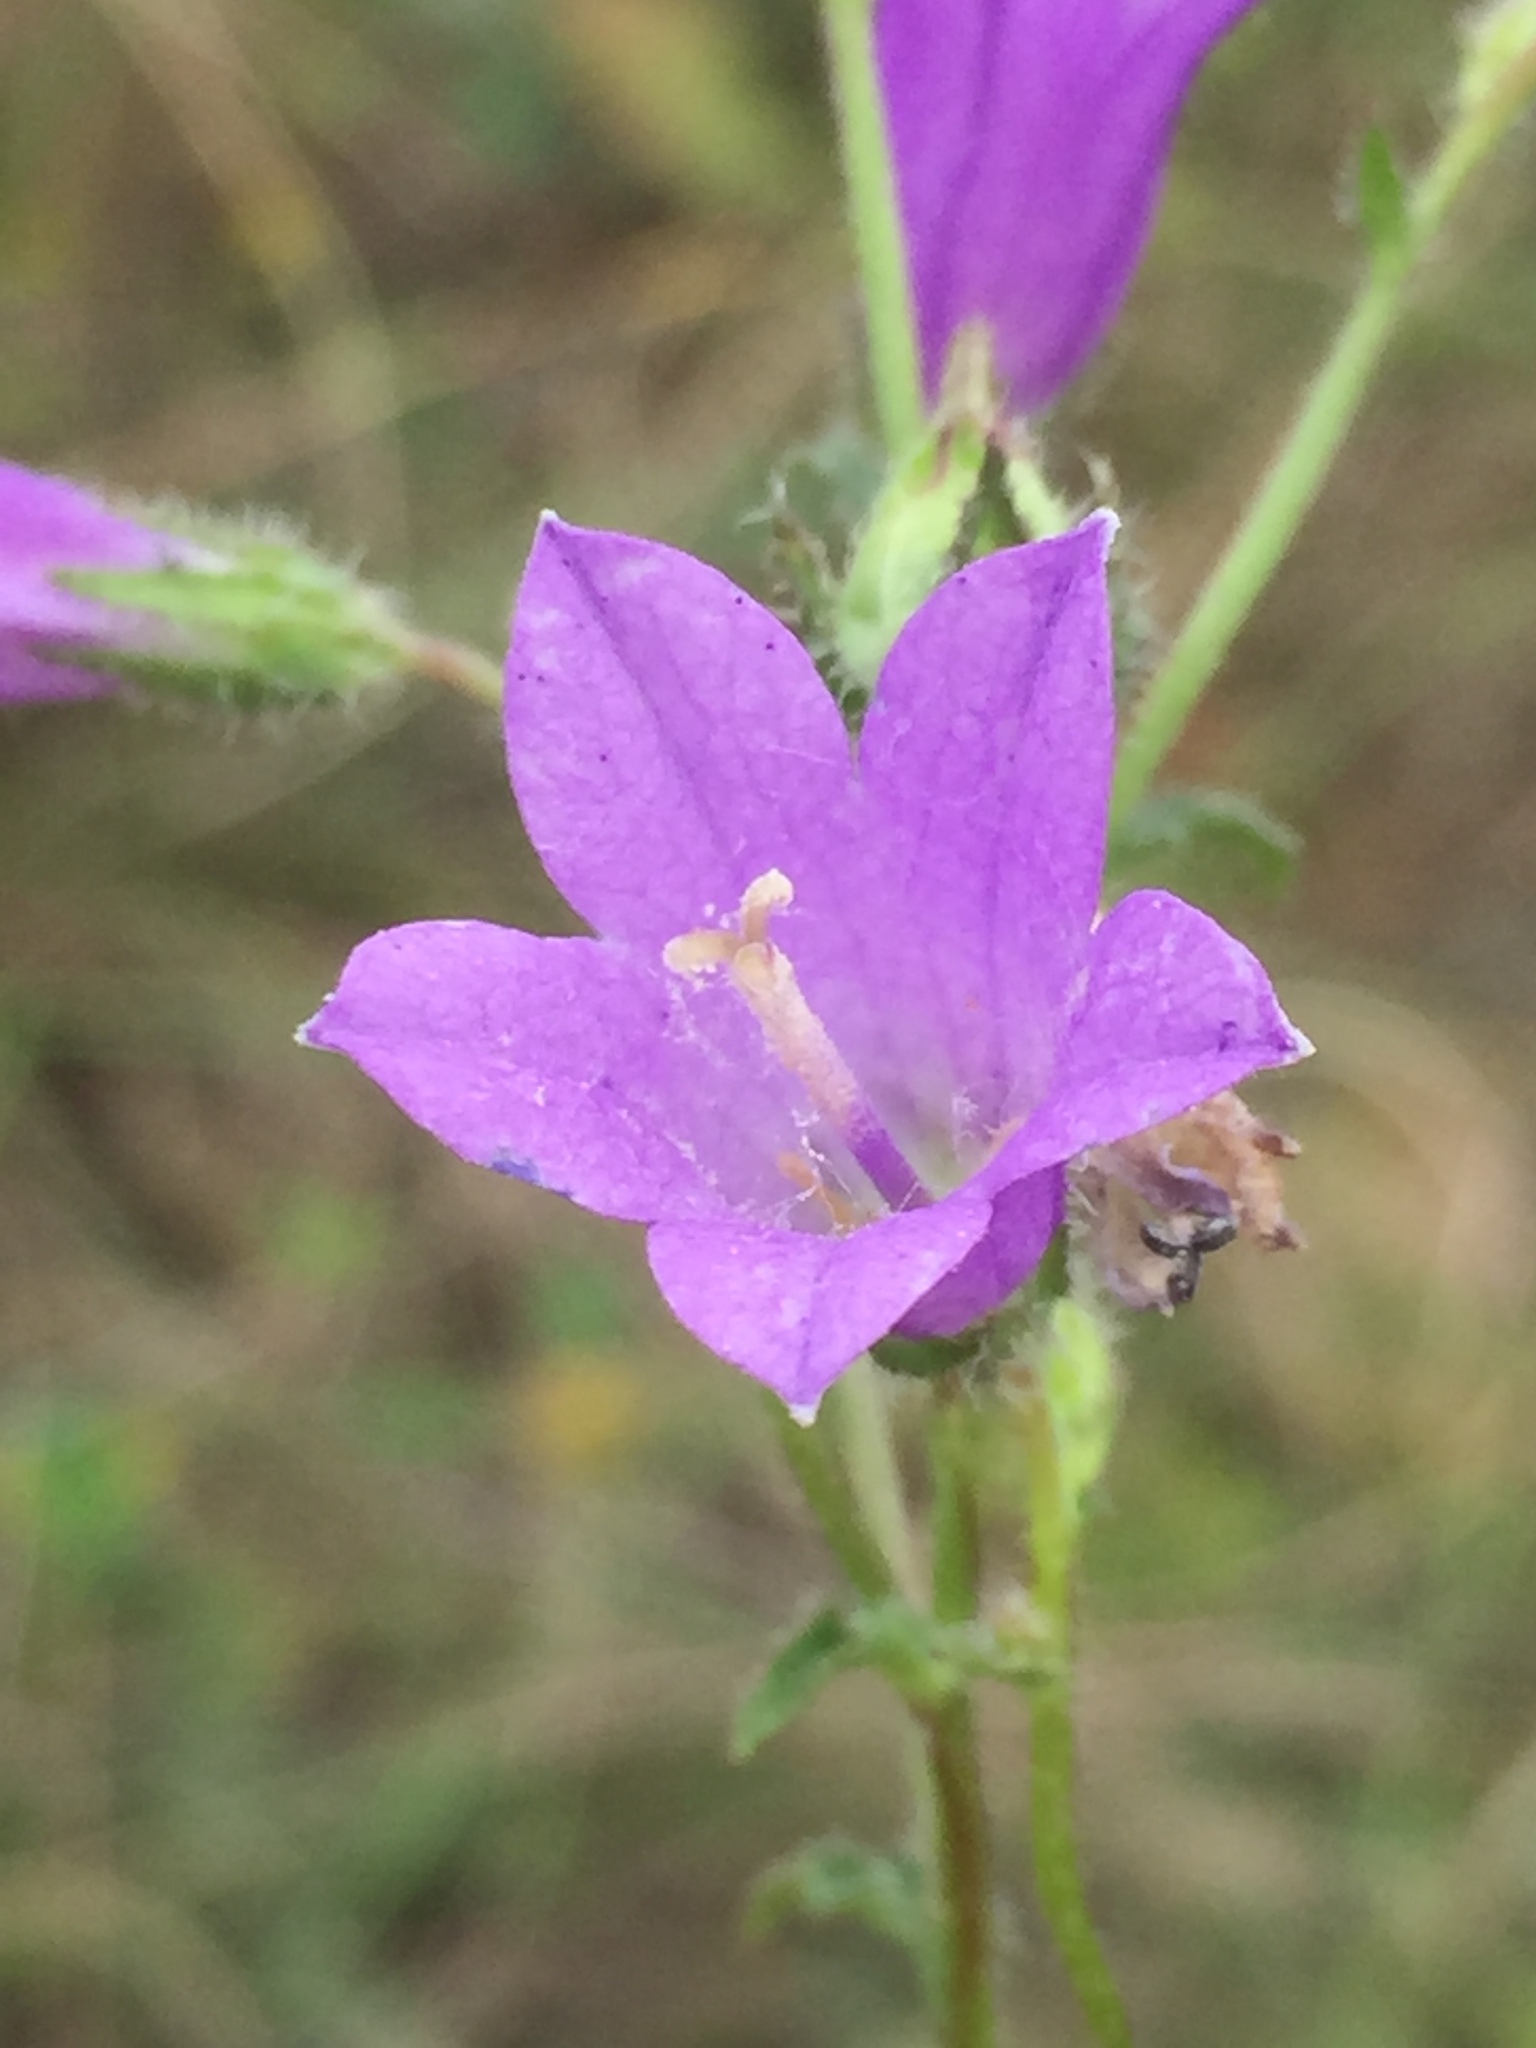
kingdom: Plantae
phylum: Tracheophyta
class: Magnoliopsida
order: Asterales
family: Campanulaceae
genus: Campanula
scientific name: Campanula sibirica
